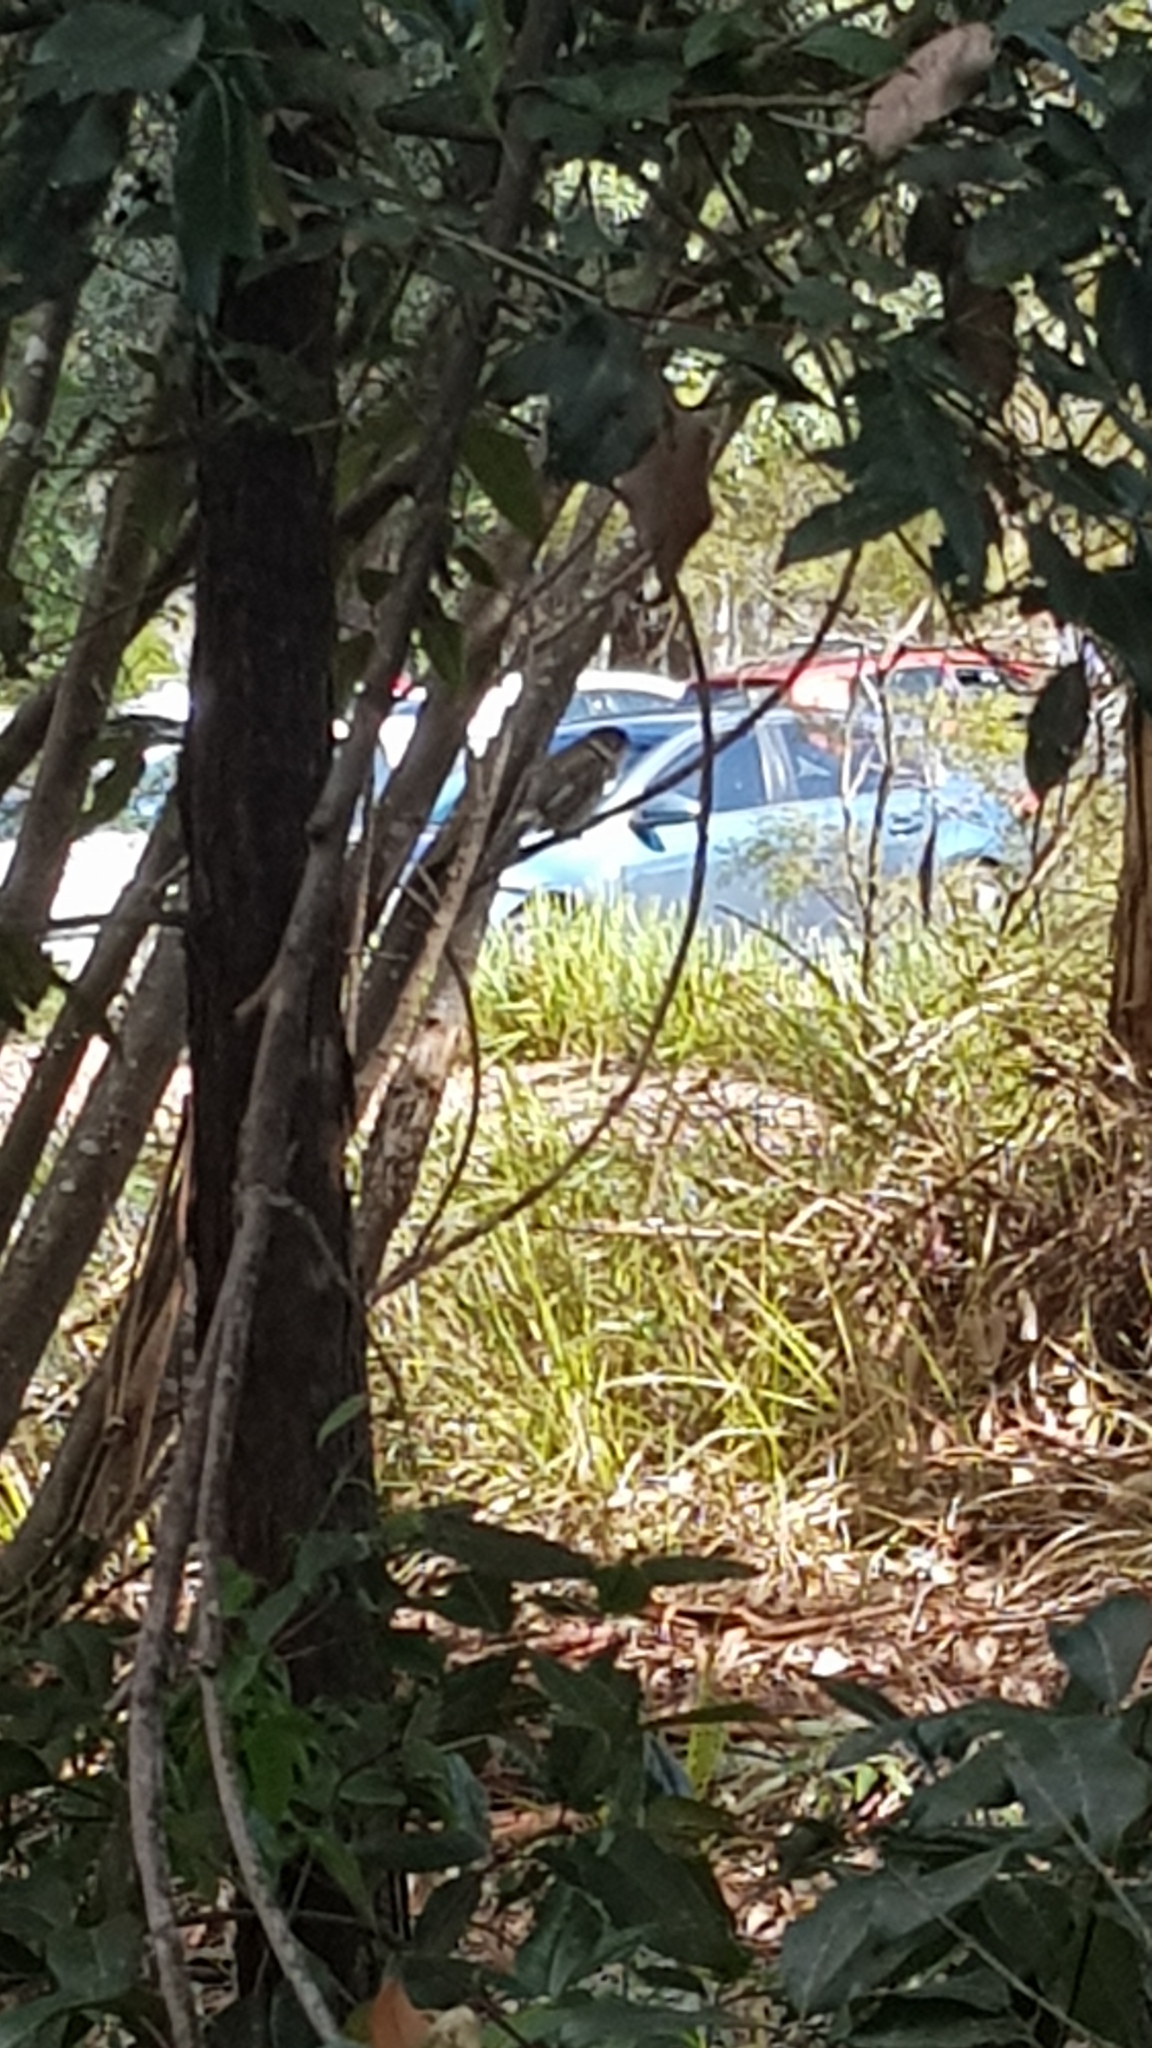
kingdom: Animalia
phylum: Chordata
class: Aves
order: Passeriformes
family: Cracticidae
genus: Cracticus
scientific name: Cracticus torquatus
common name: Grey butcherbird
